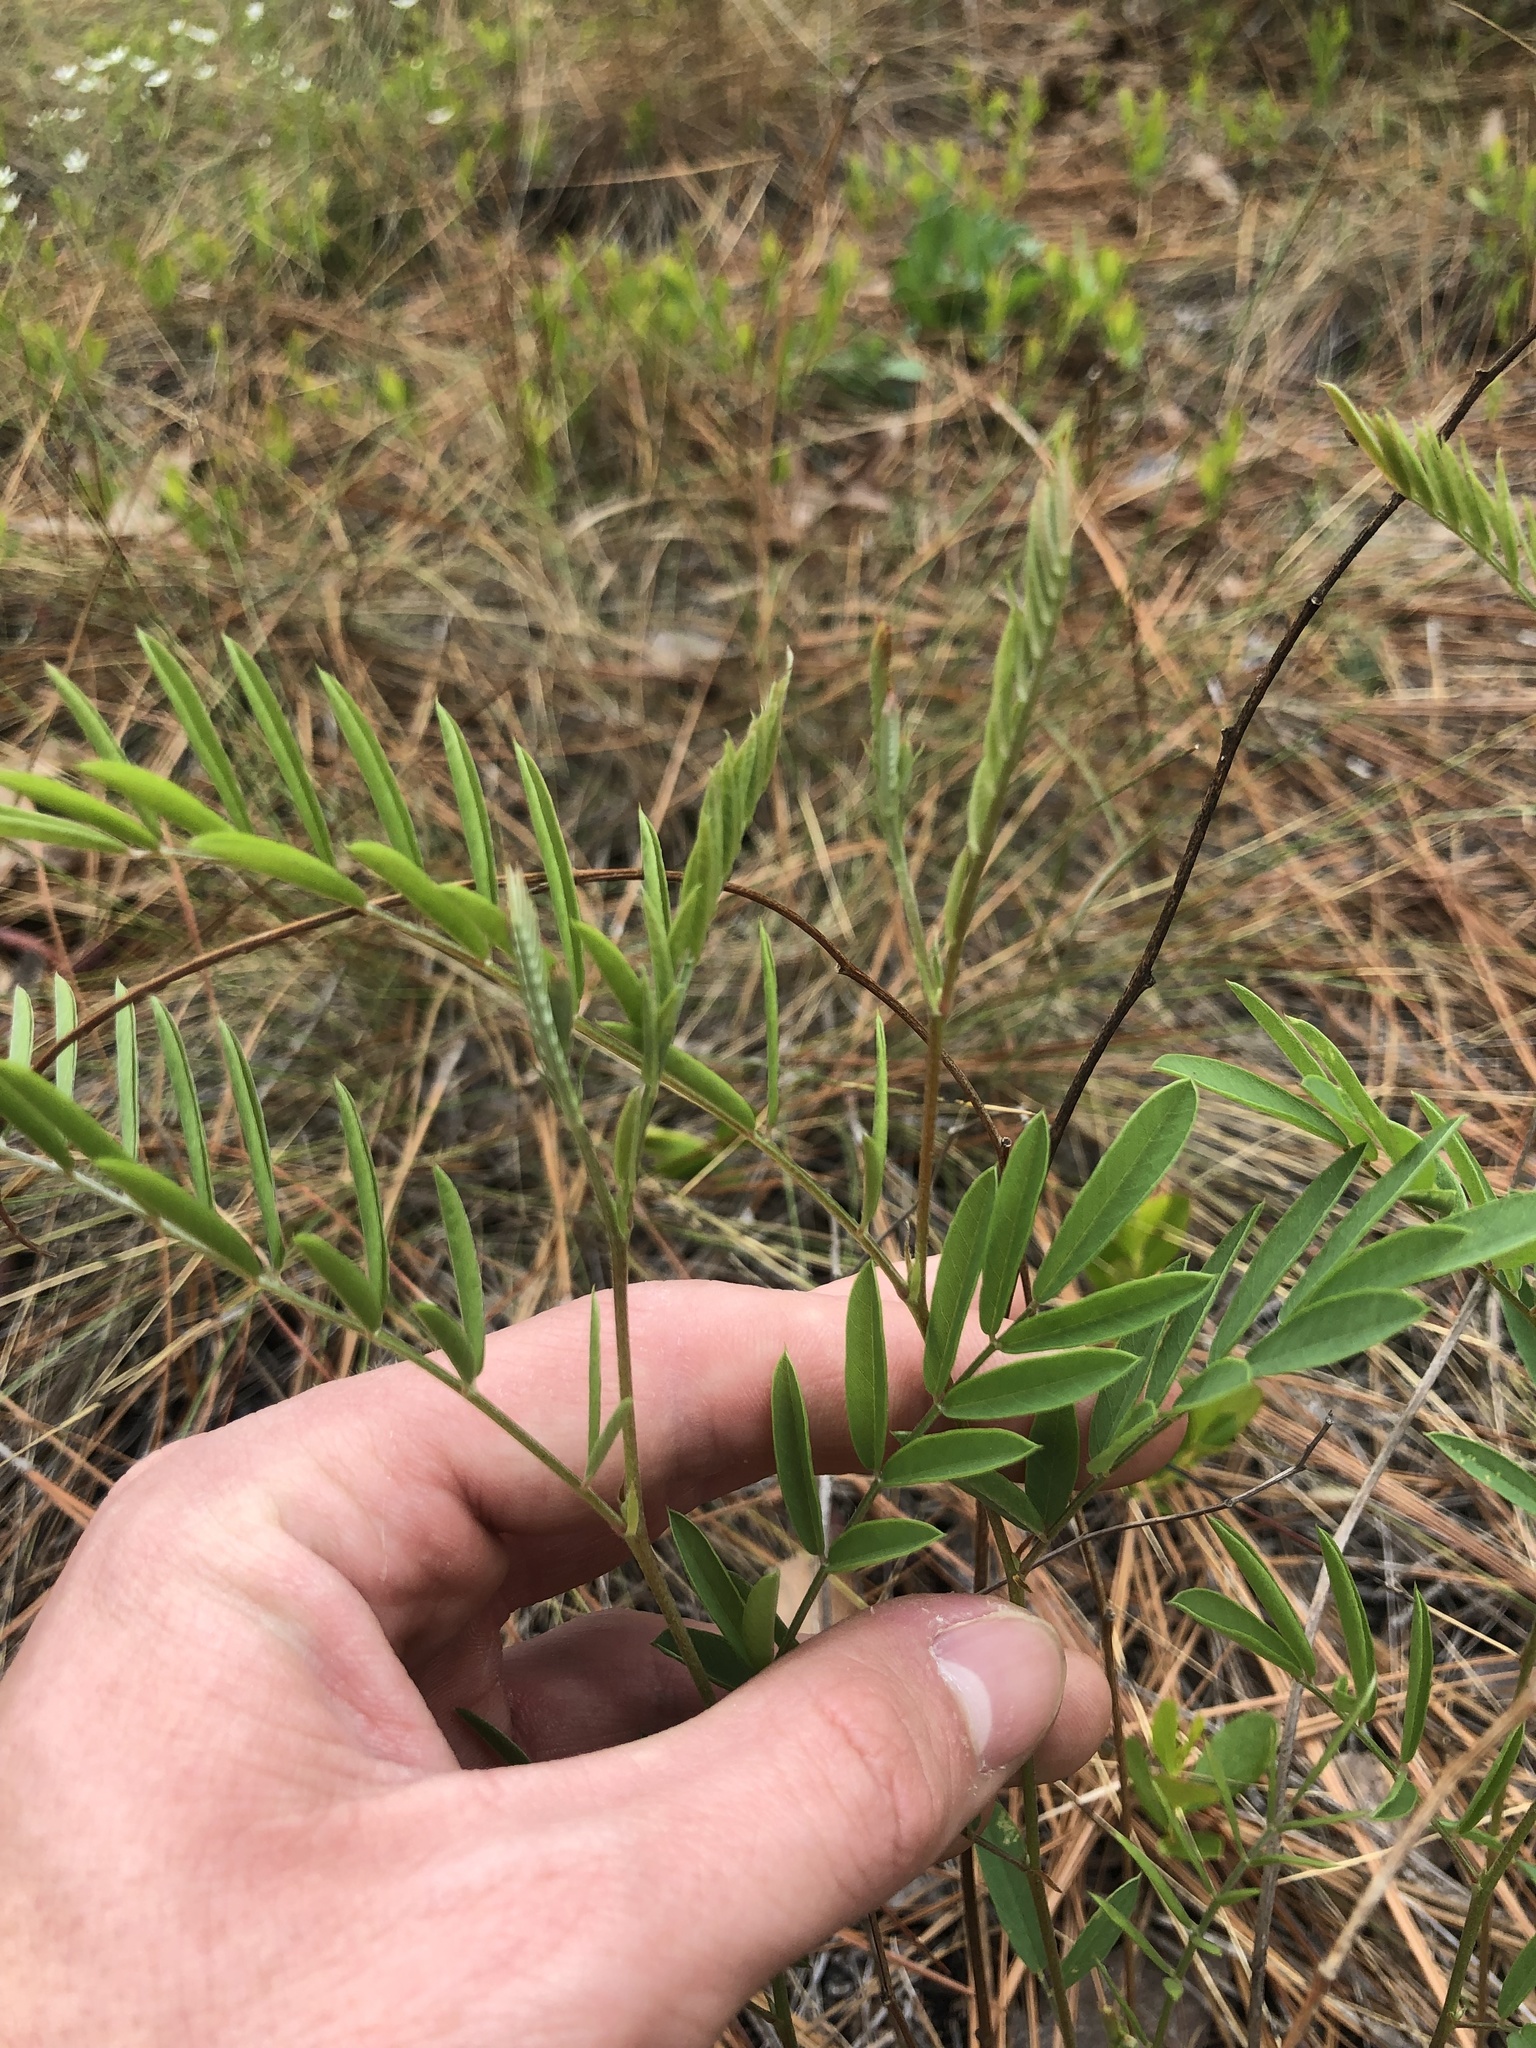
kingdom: Plantae
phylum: Tracheophyta
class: Magnoliopsida
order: Fabales
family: Fabaceae
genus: Tephrosia
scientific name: Tephrosia virginiana
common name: Rabbit-pea
